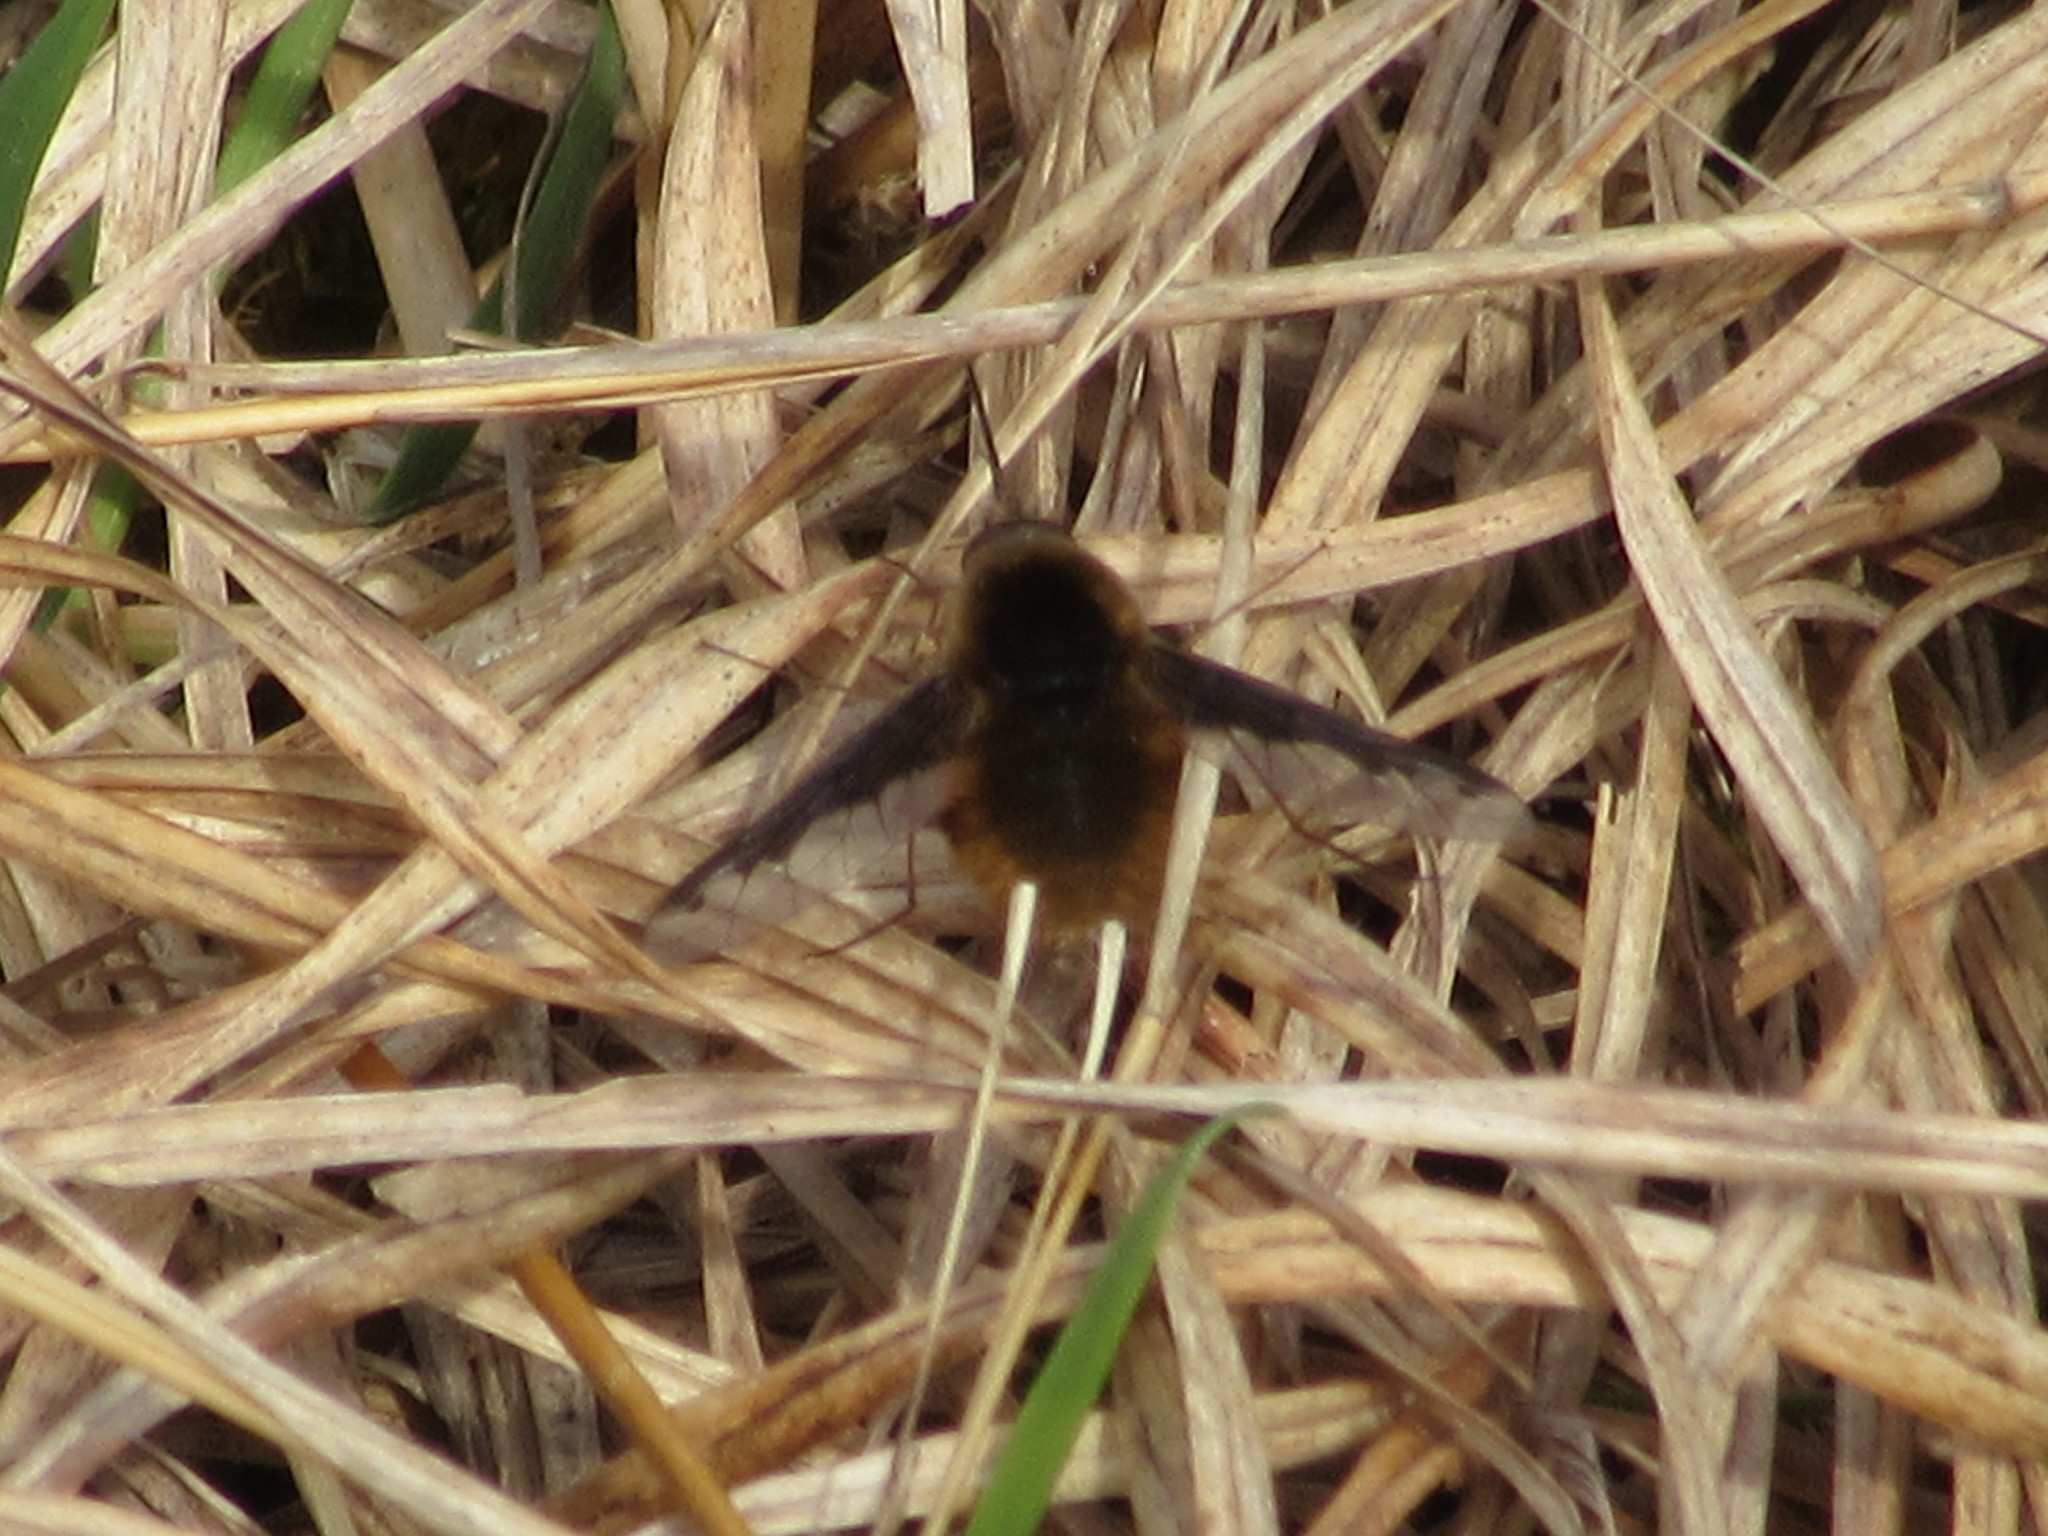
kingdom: Animalia
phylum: Arthropoda
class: Insecta
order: Diptera
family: Bombyliidae
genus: Bombylius
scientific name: Bombylius major
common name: Bee fly
